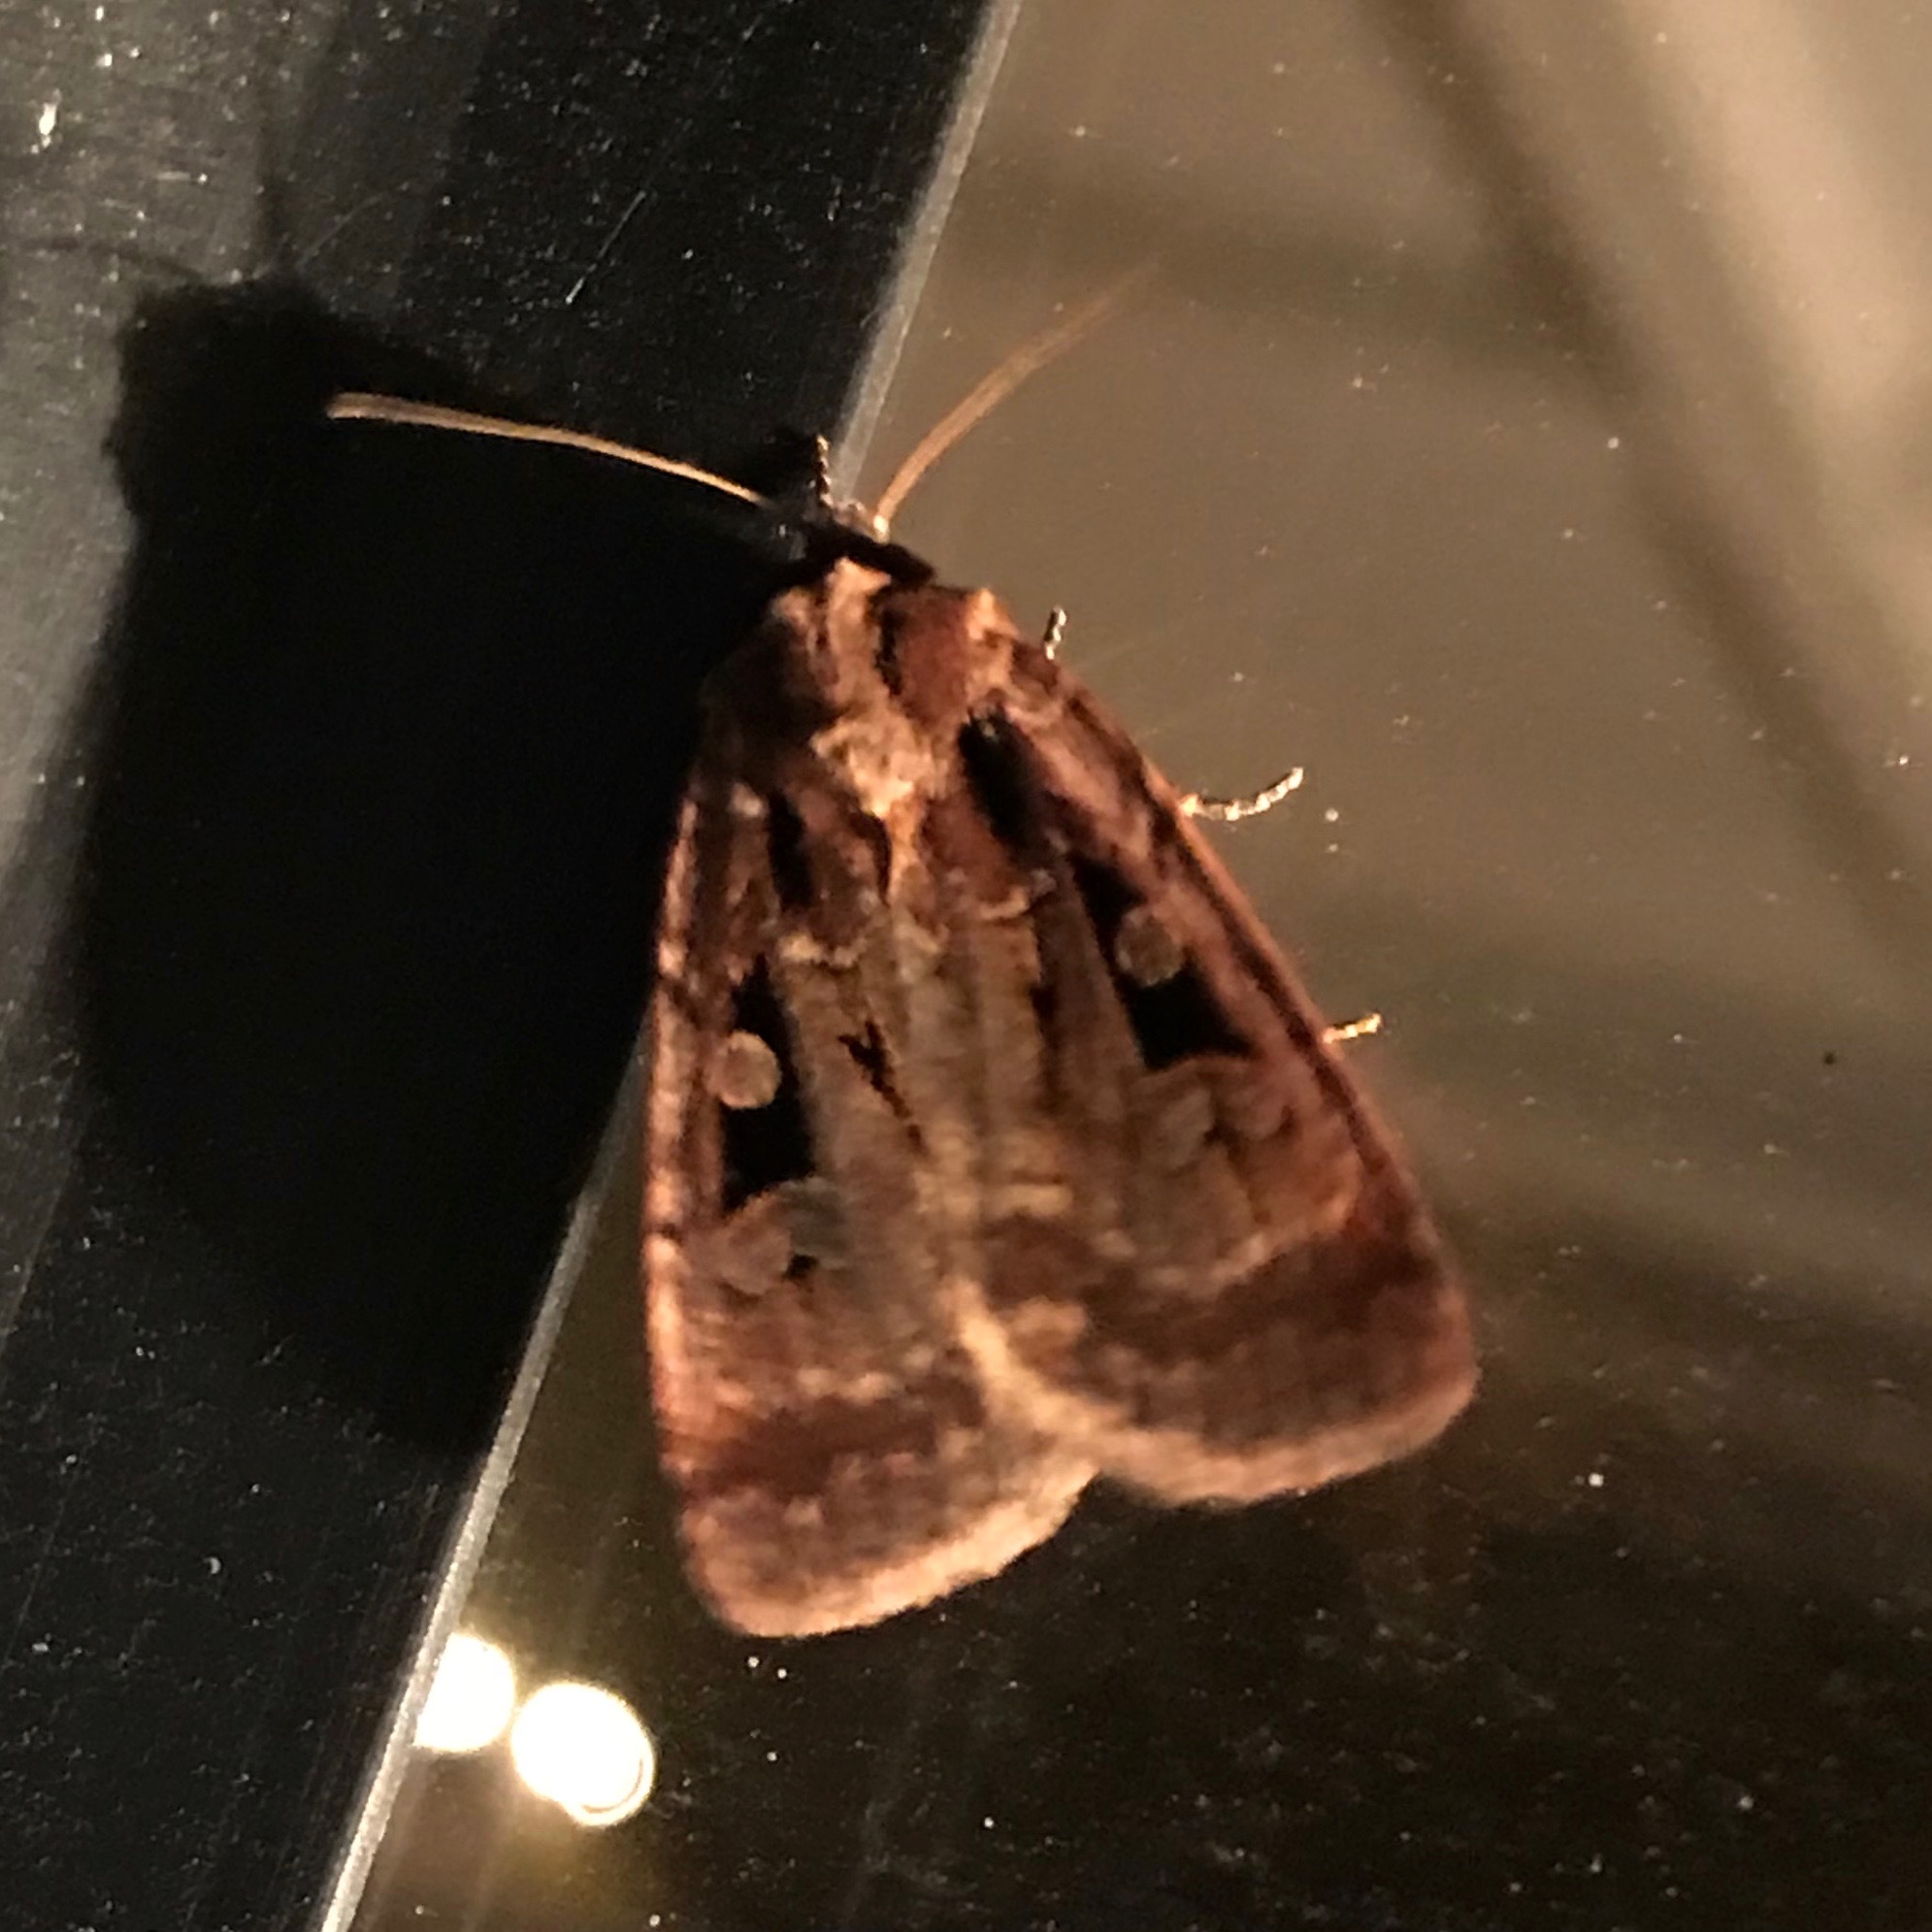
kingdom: Animalia
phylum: Arthropoda
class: Insecta
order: Lepidoptera
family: Noctuidae
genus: Eueretagrotis
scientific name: Eueretagrotis perattentus
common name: Two-spot dart moth
